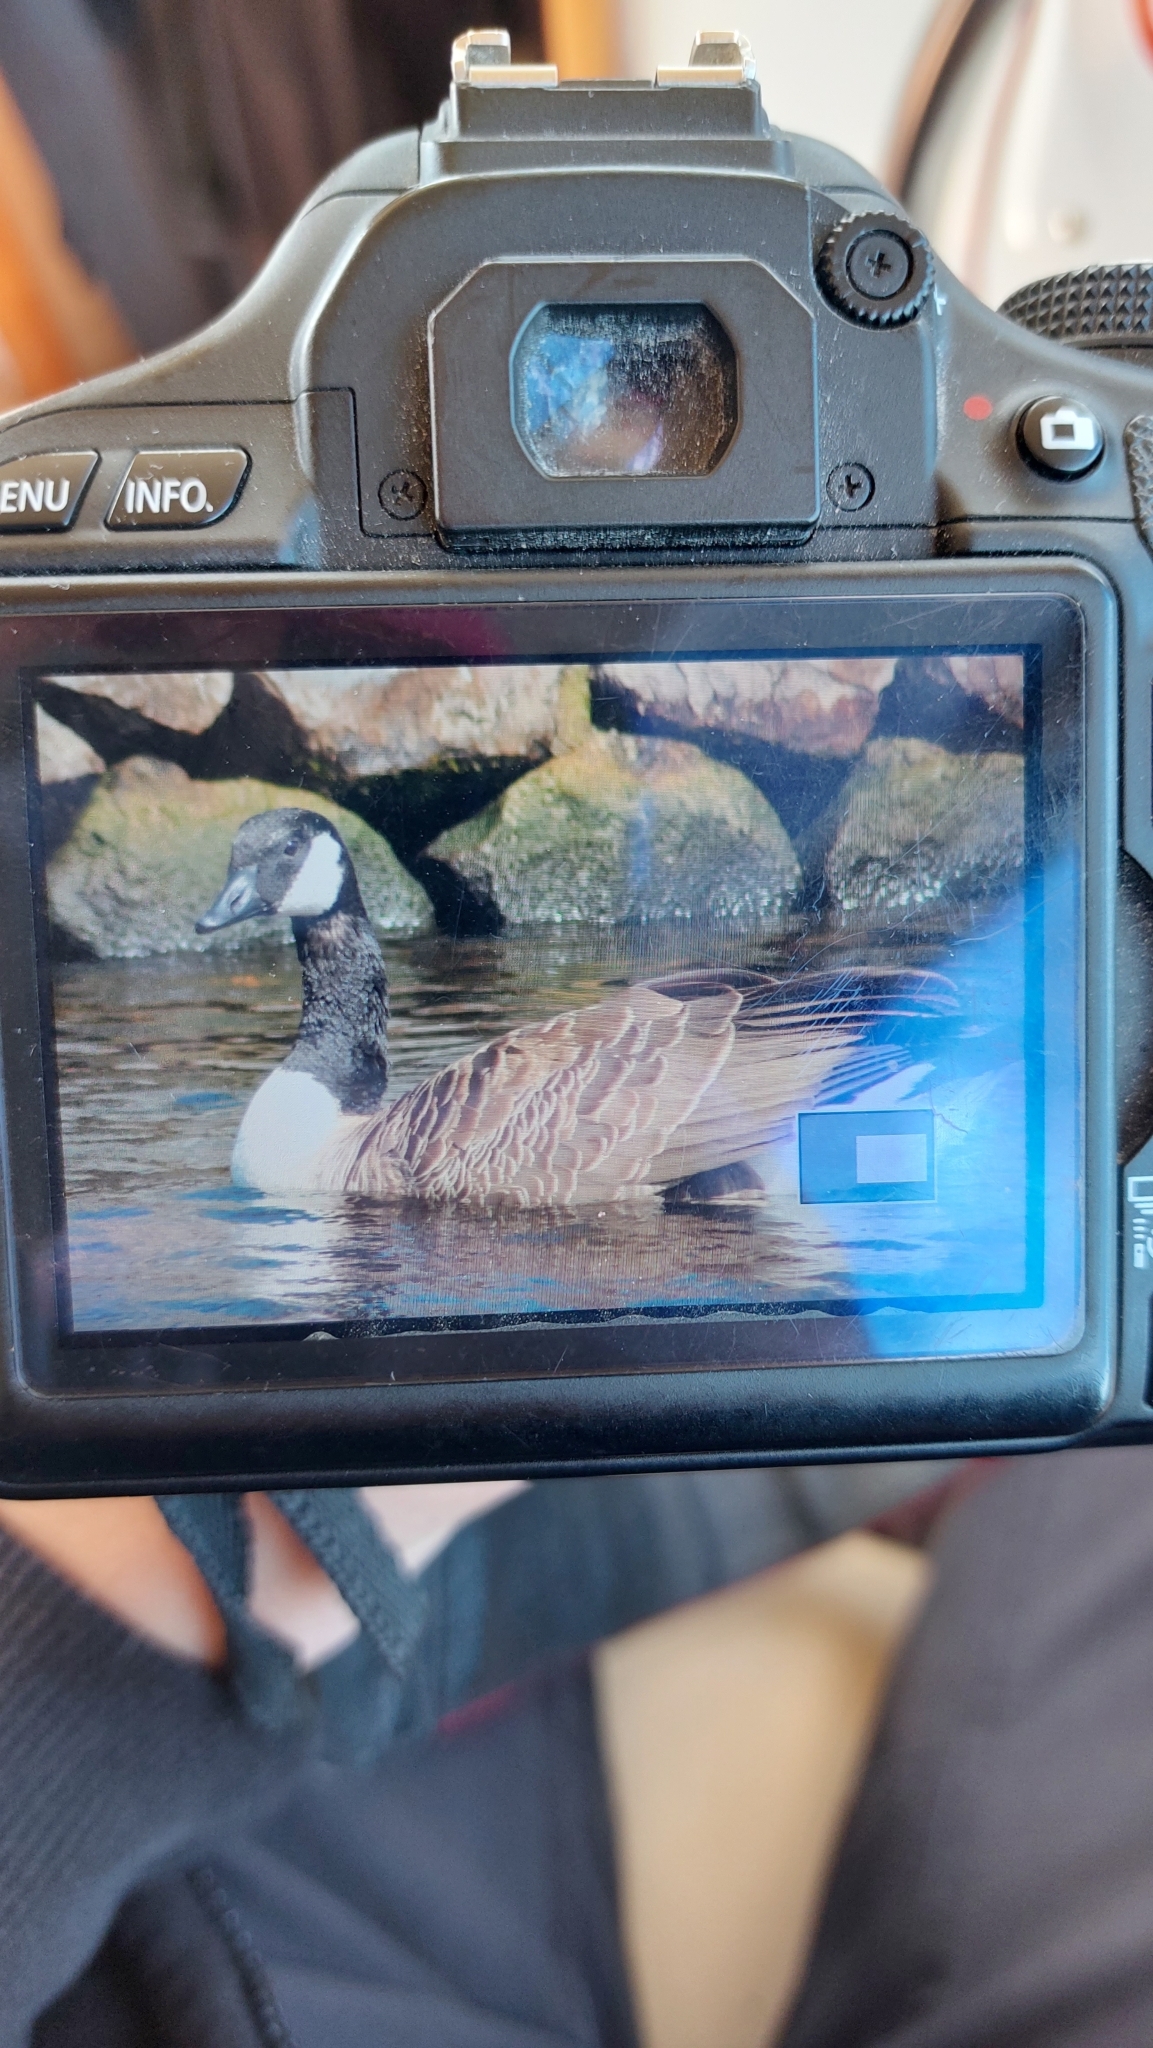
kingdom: Animalia
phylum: Chordata
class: Aves
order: Anseriformes
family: Anatidae
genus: Branta
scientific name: Branta canadensis
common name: Canada goose
